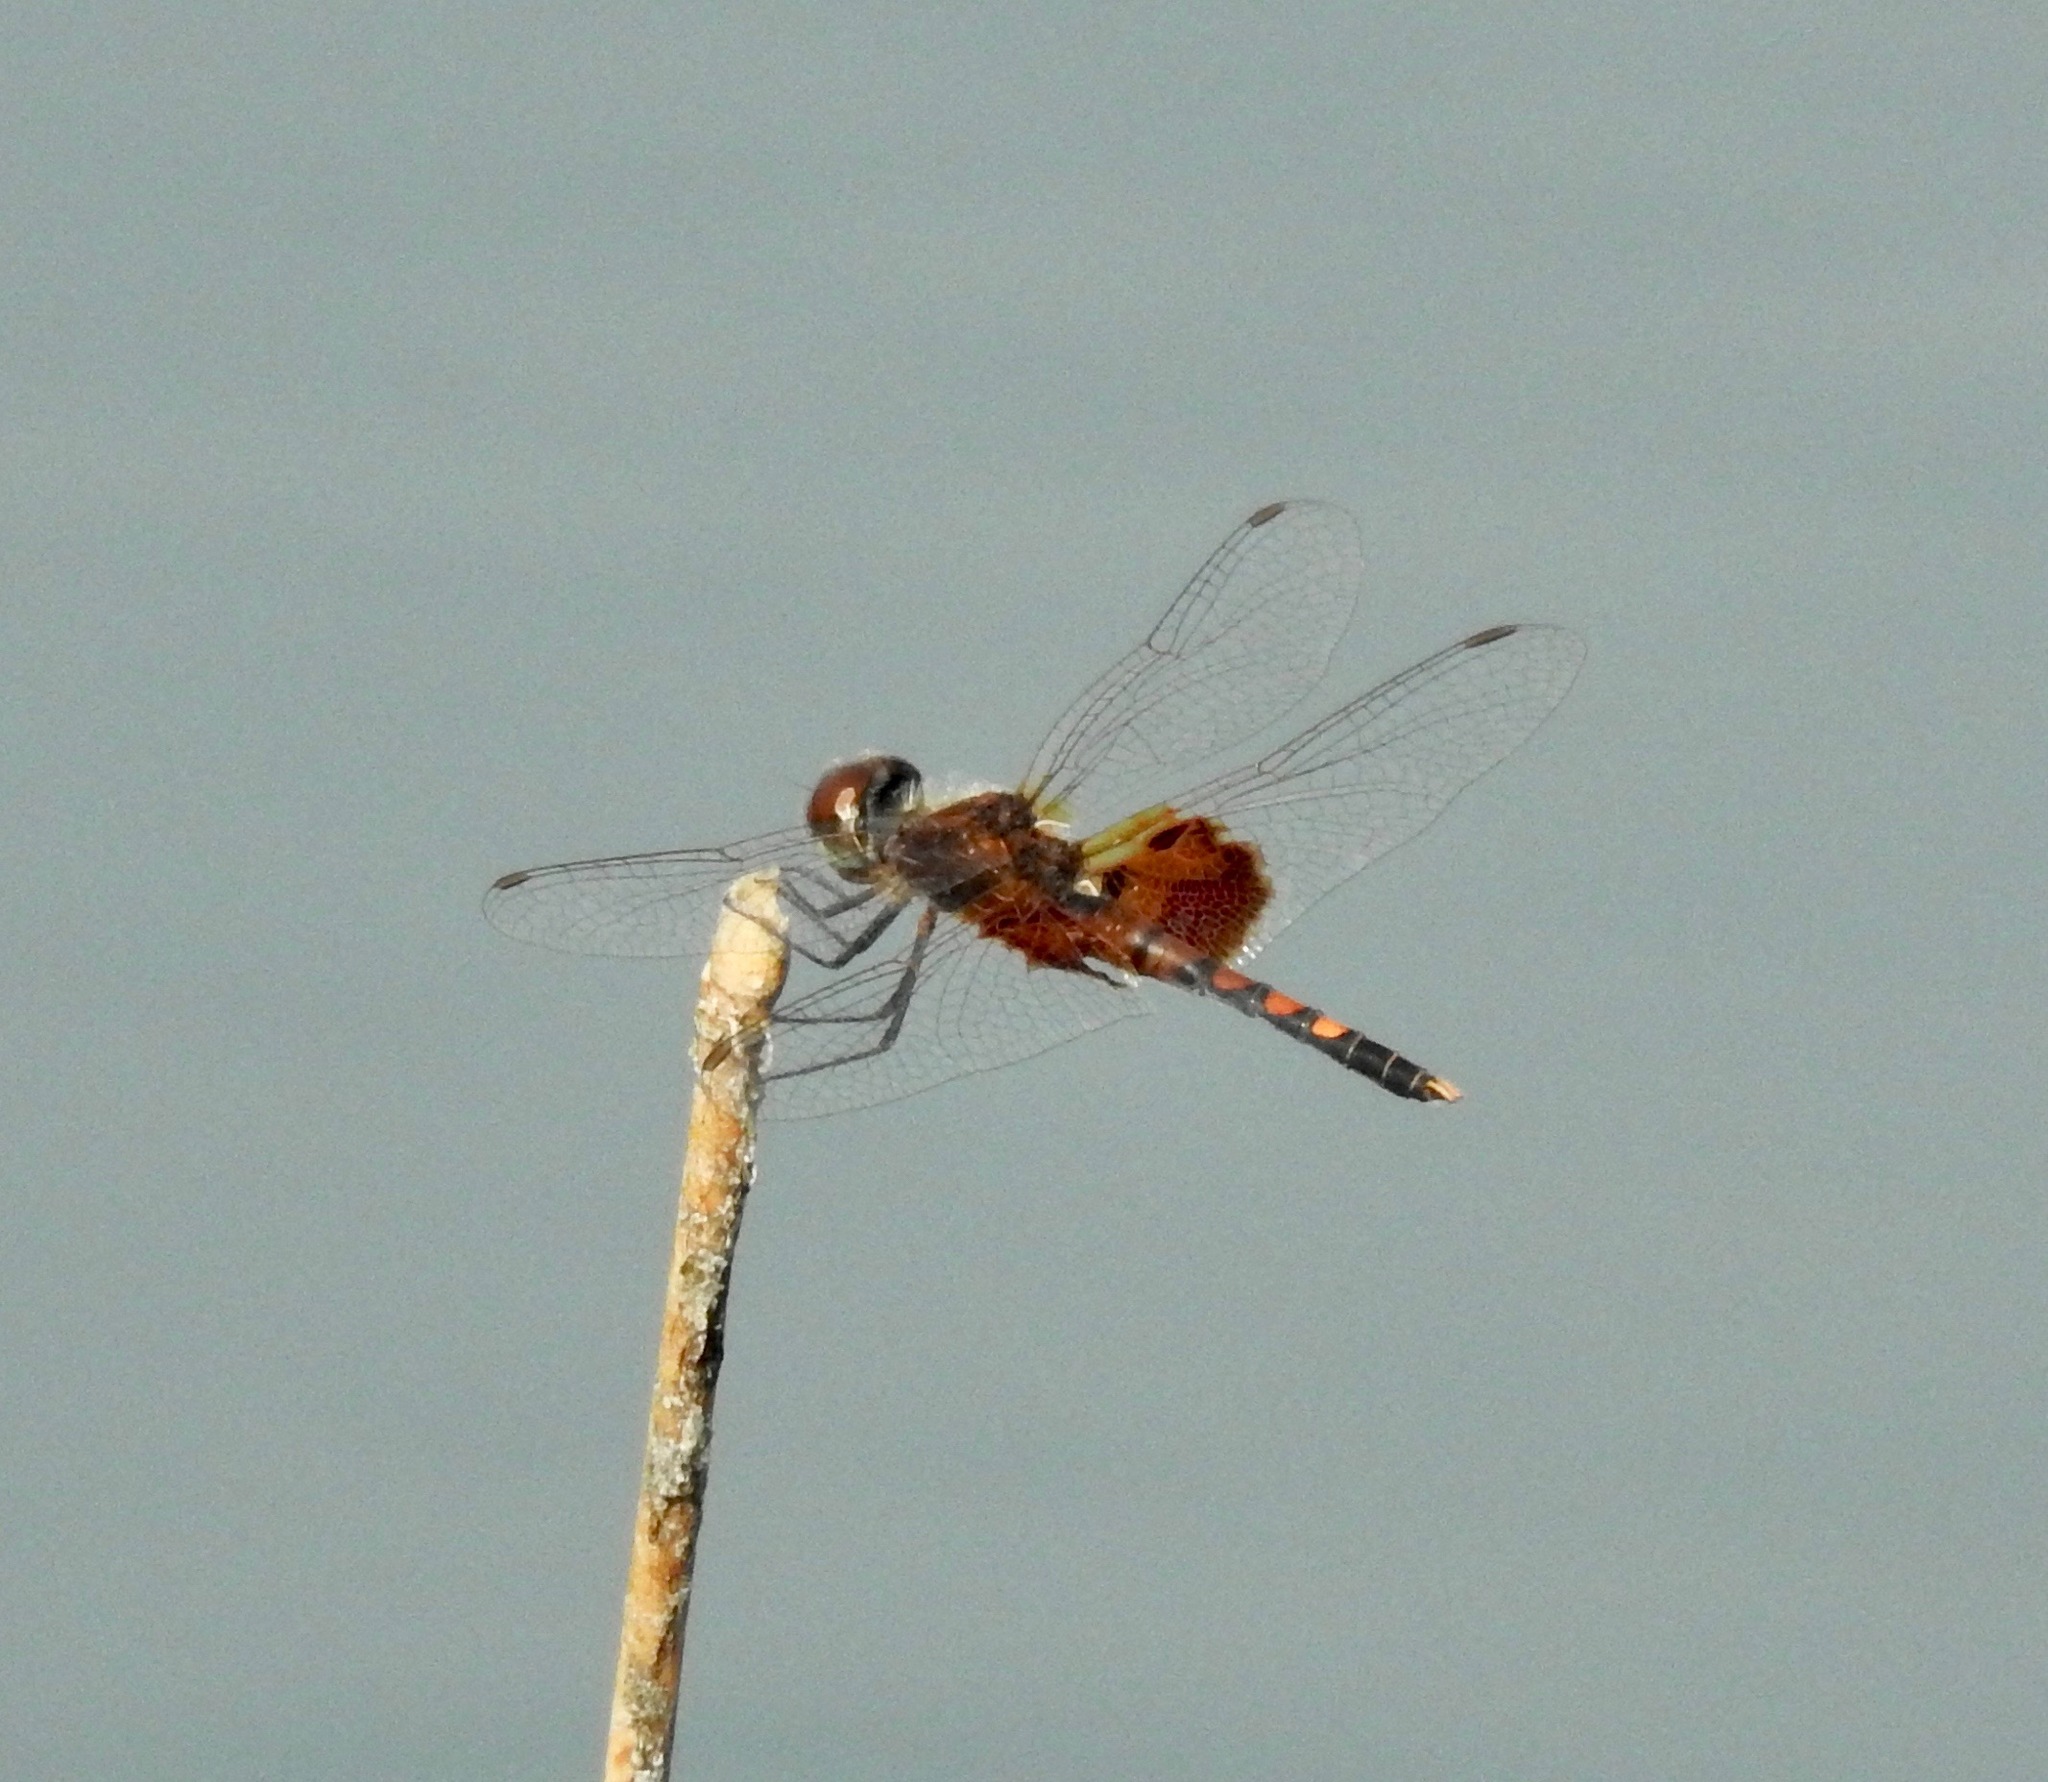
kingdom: Animalia
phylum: Arthropoda
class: Insecta
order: Odonata
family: Libellulidae
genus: Celithemis
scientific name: Celithemis amanda
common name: Amanda's pennant
